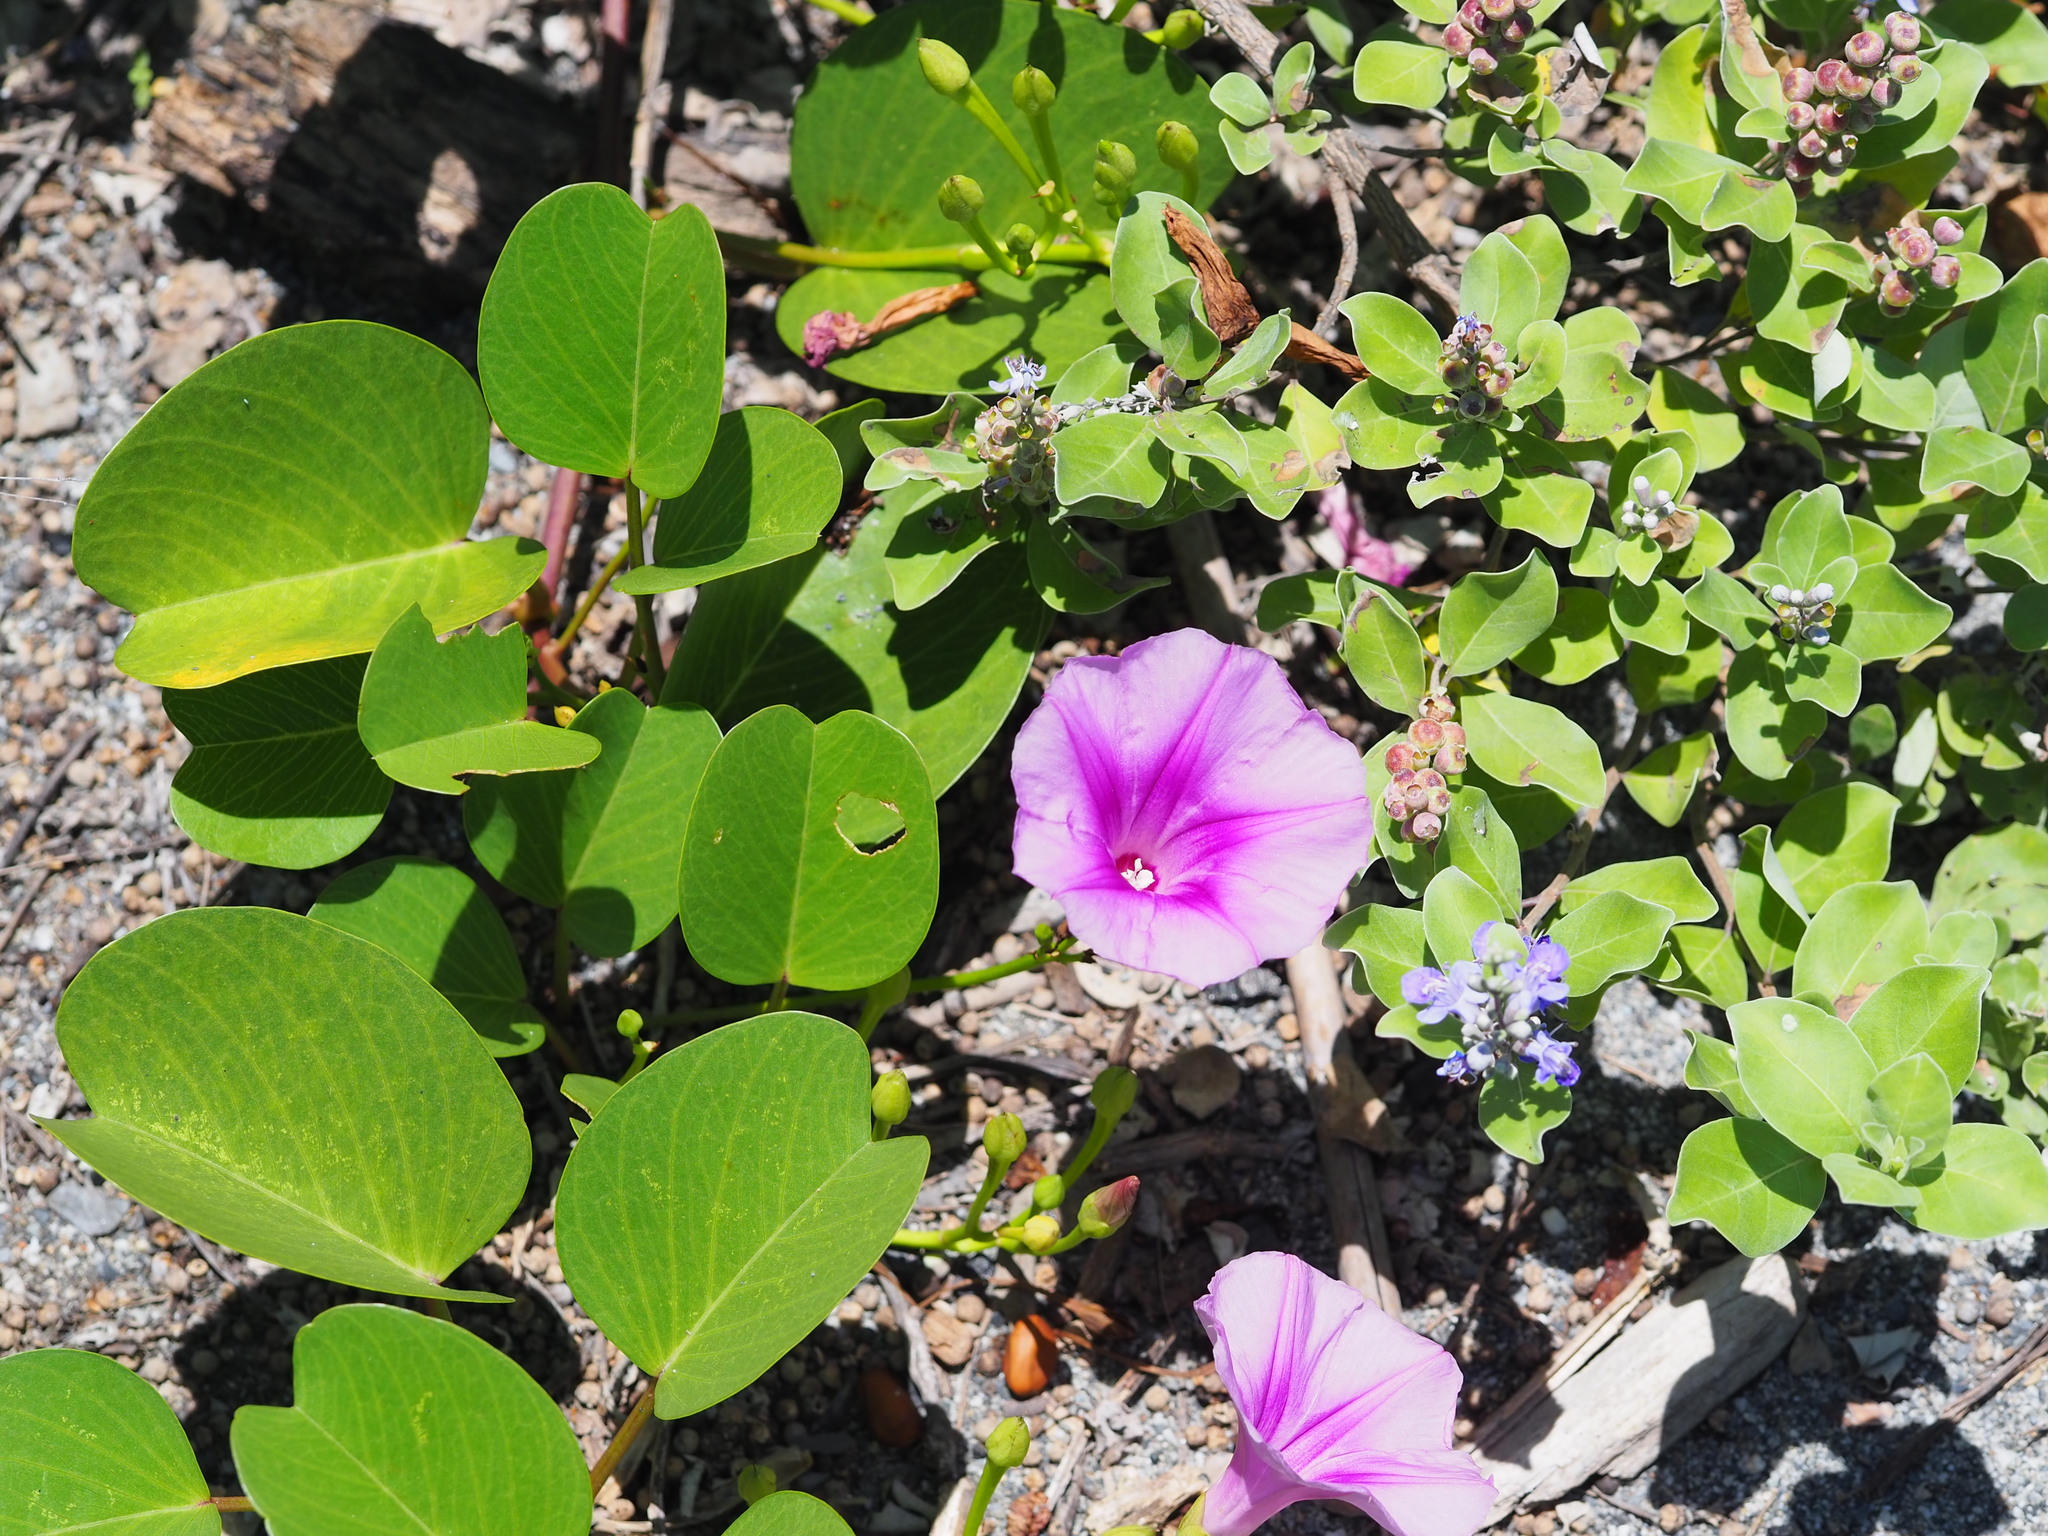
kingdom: Plantae
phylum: Tracheophyta
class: Magnoliopsida
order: Solanales
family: Convolvulaceae
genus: Ipomoea
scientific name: Ipomoea pes-caprae
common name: Beach morning glory
